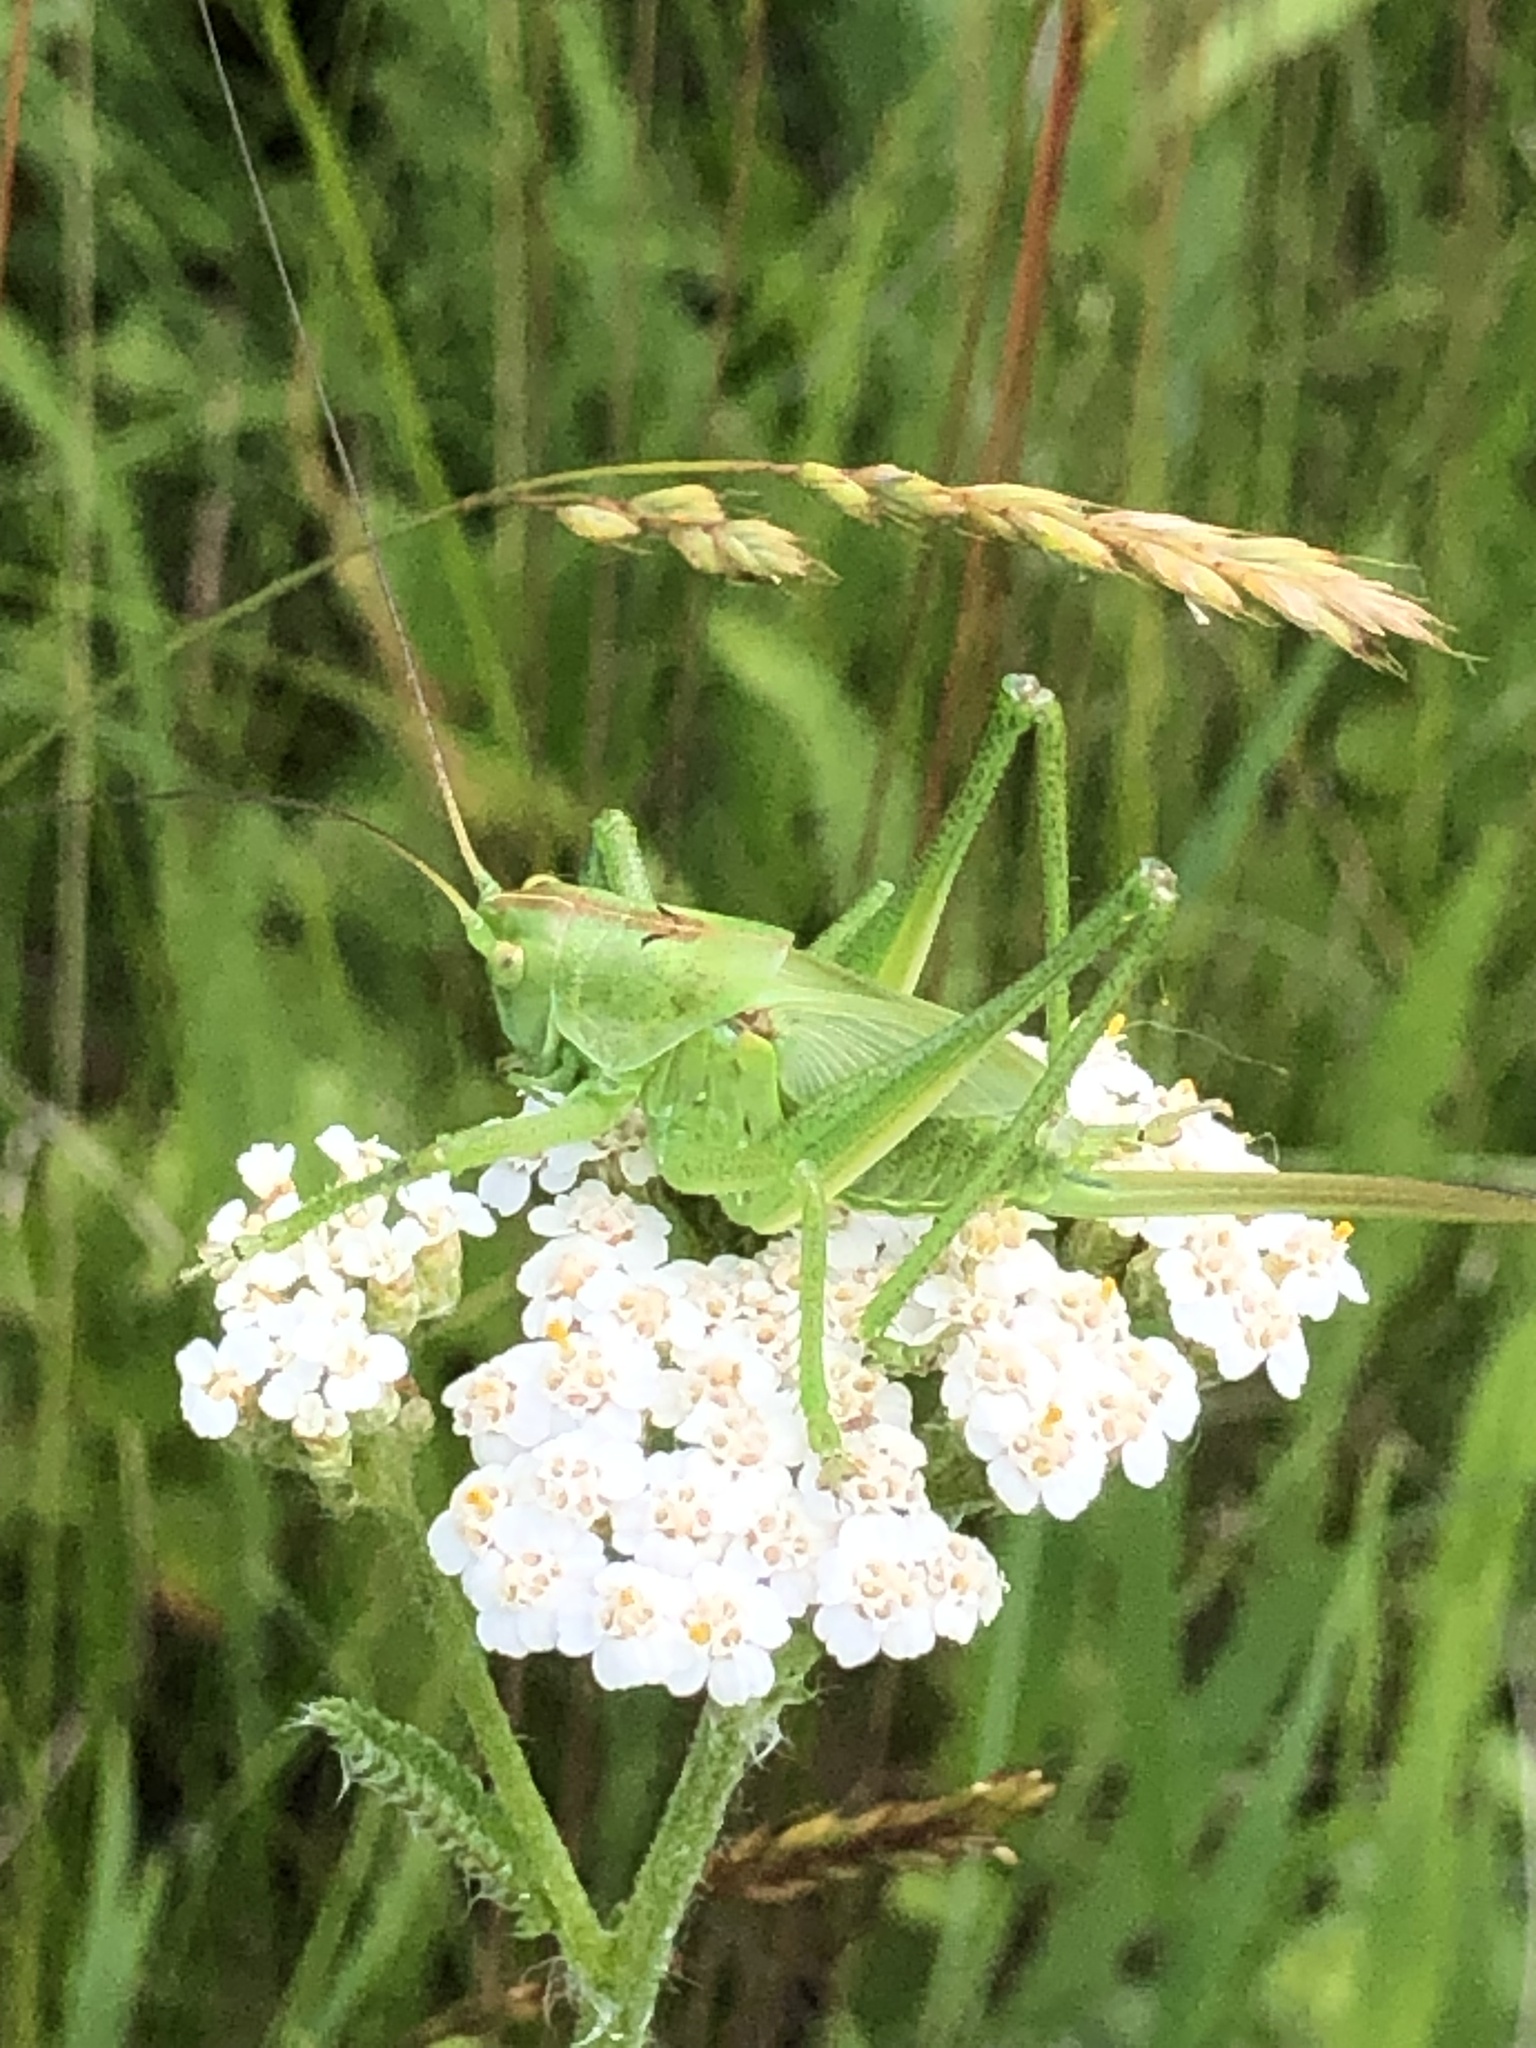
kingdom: Animalia
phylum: Arthropoda
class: Insecta
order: Orthoptera
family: Tettigoniidae
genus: Tettigonia
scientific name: Tettigonia viridissima
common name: Great green bush-cricket
